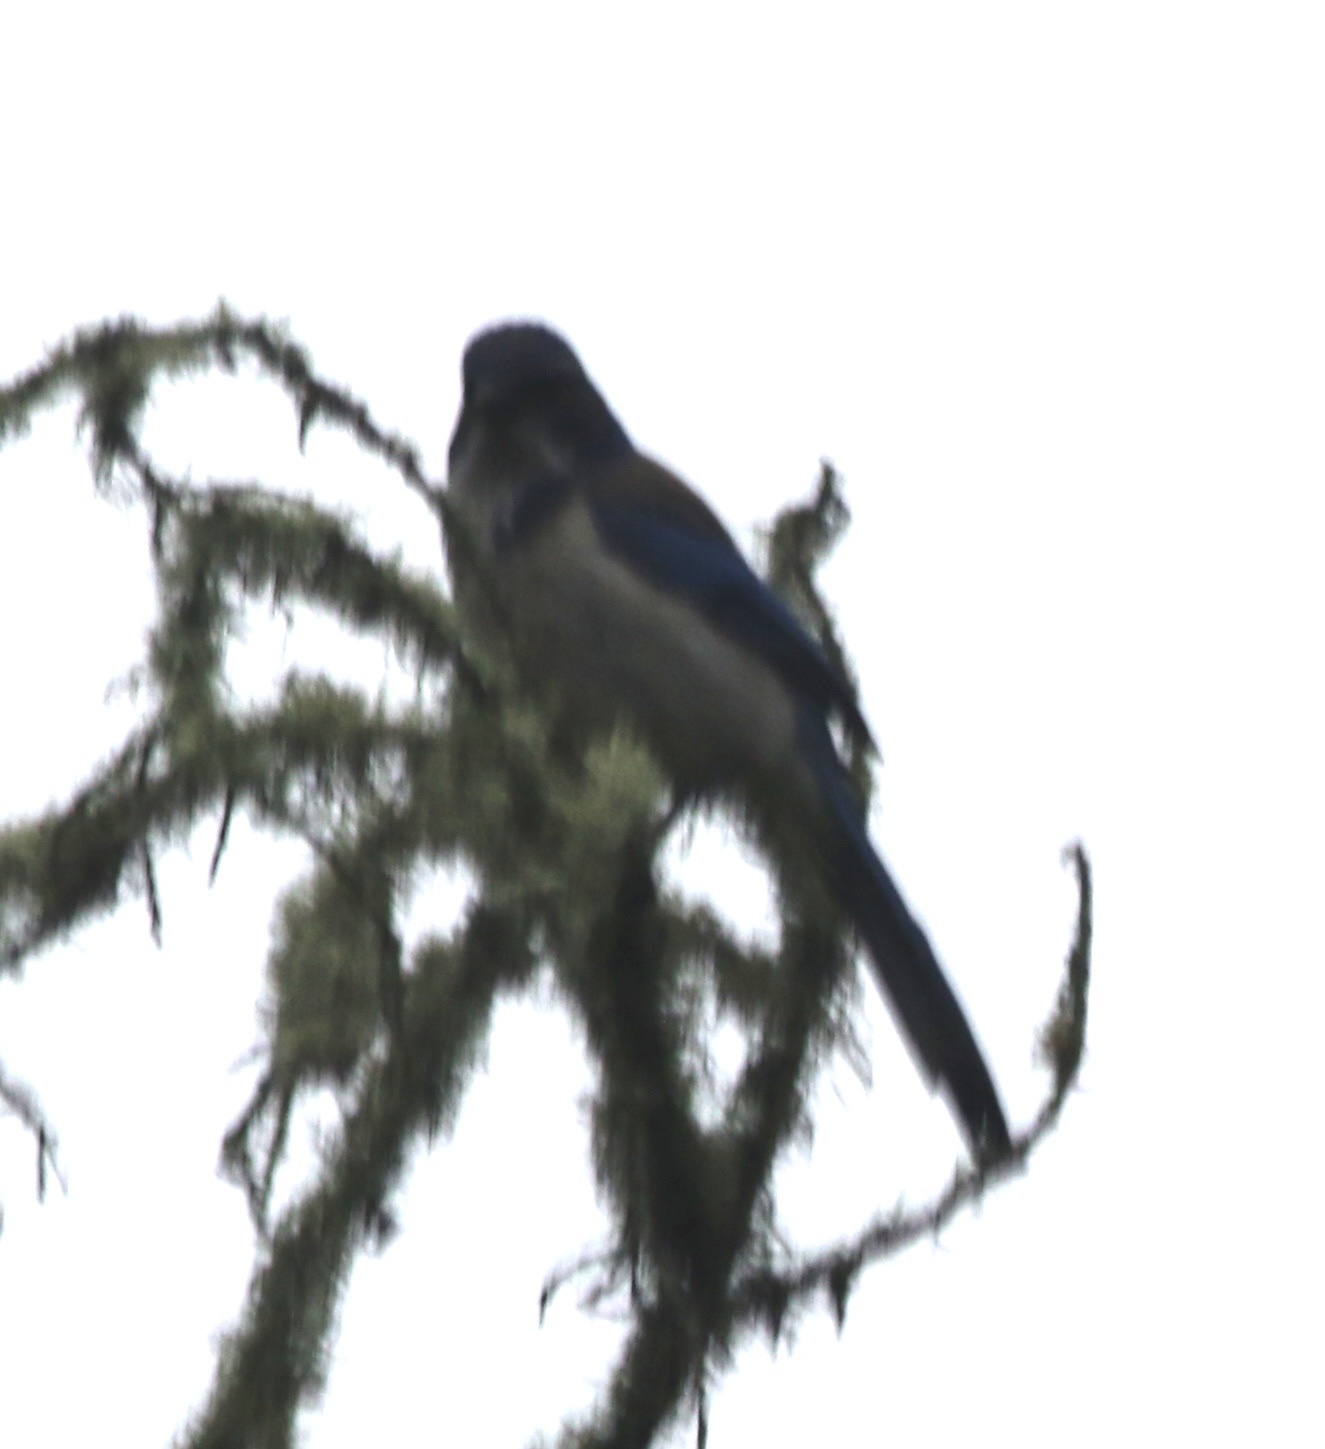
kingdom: Animalia
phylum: Chordata
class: Aves
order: Passeriformes
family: Corvidae
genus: Aphelocoma
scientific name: Aphelocoma californica
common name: California scrub-jay
